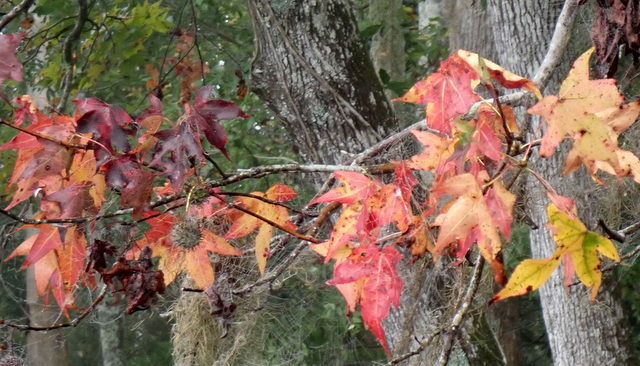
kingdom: Plantae
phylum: Tracheophyta
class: Magnoliopsida
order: Saxifragales
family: Altingiaceae
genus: Liquidambar
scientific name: Liquidambar styraciflua
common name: Sweet gum
